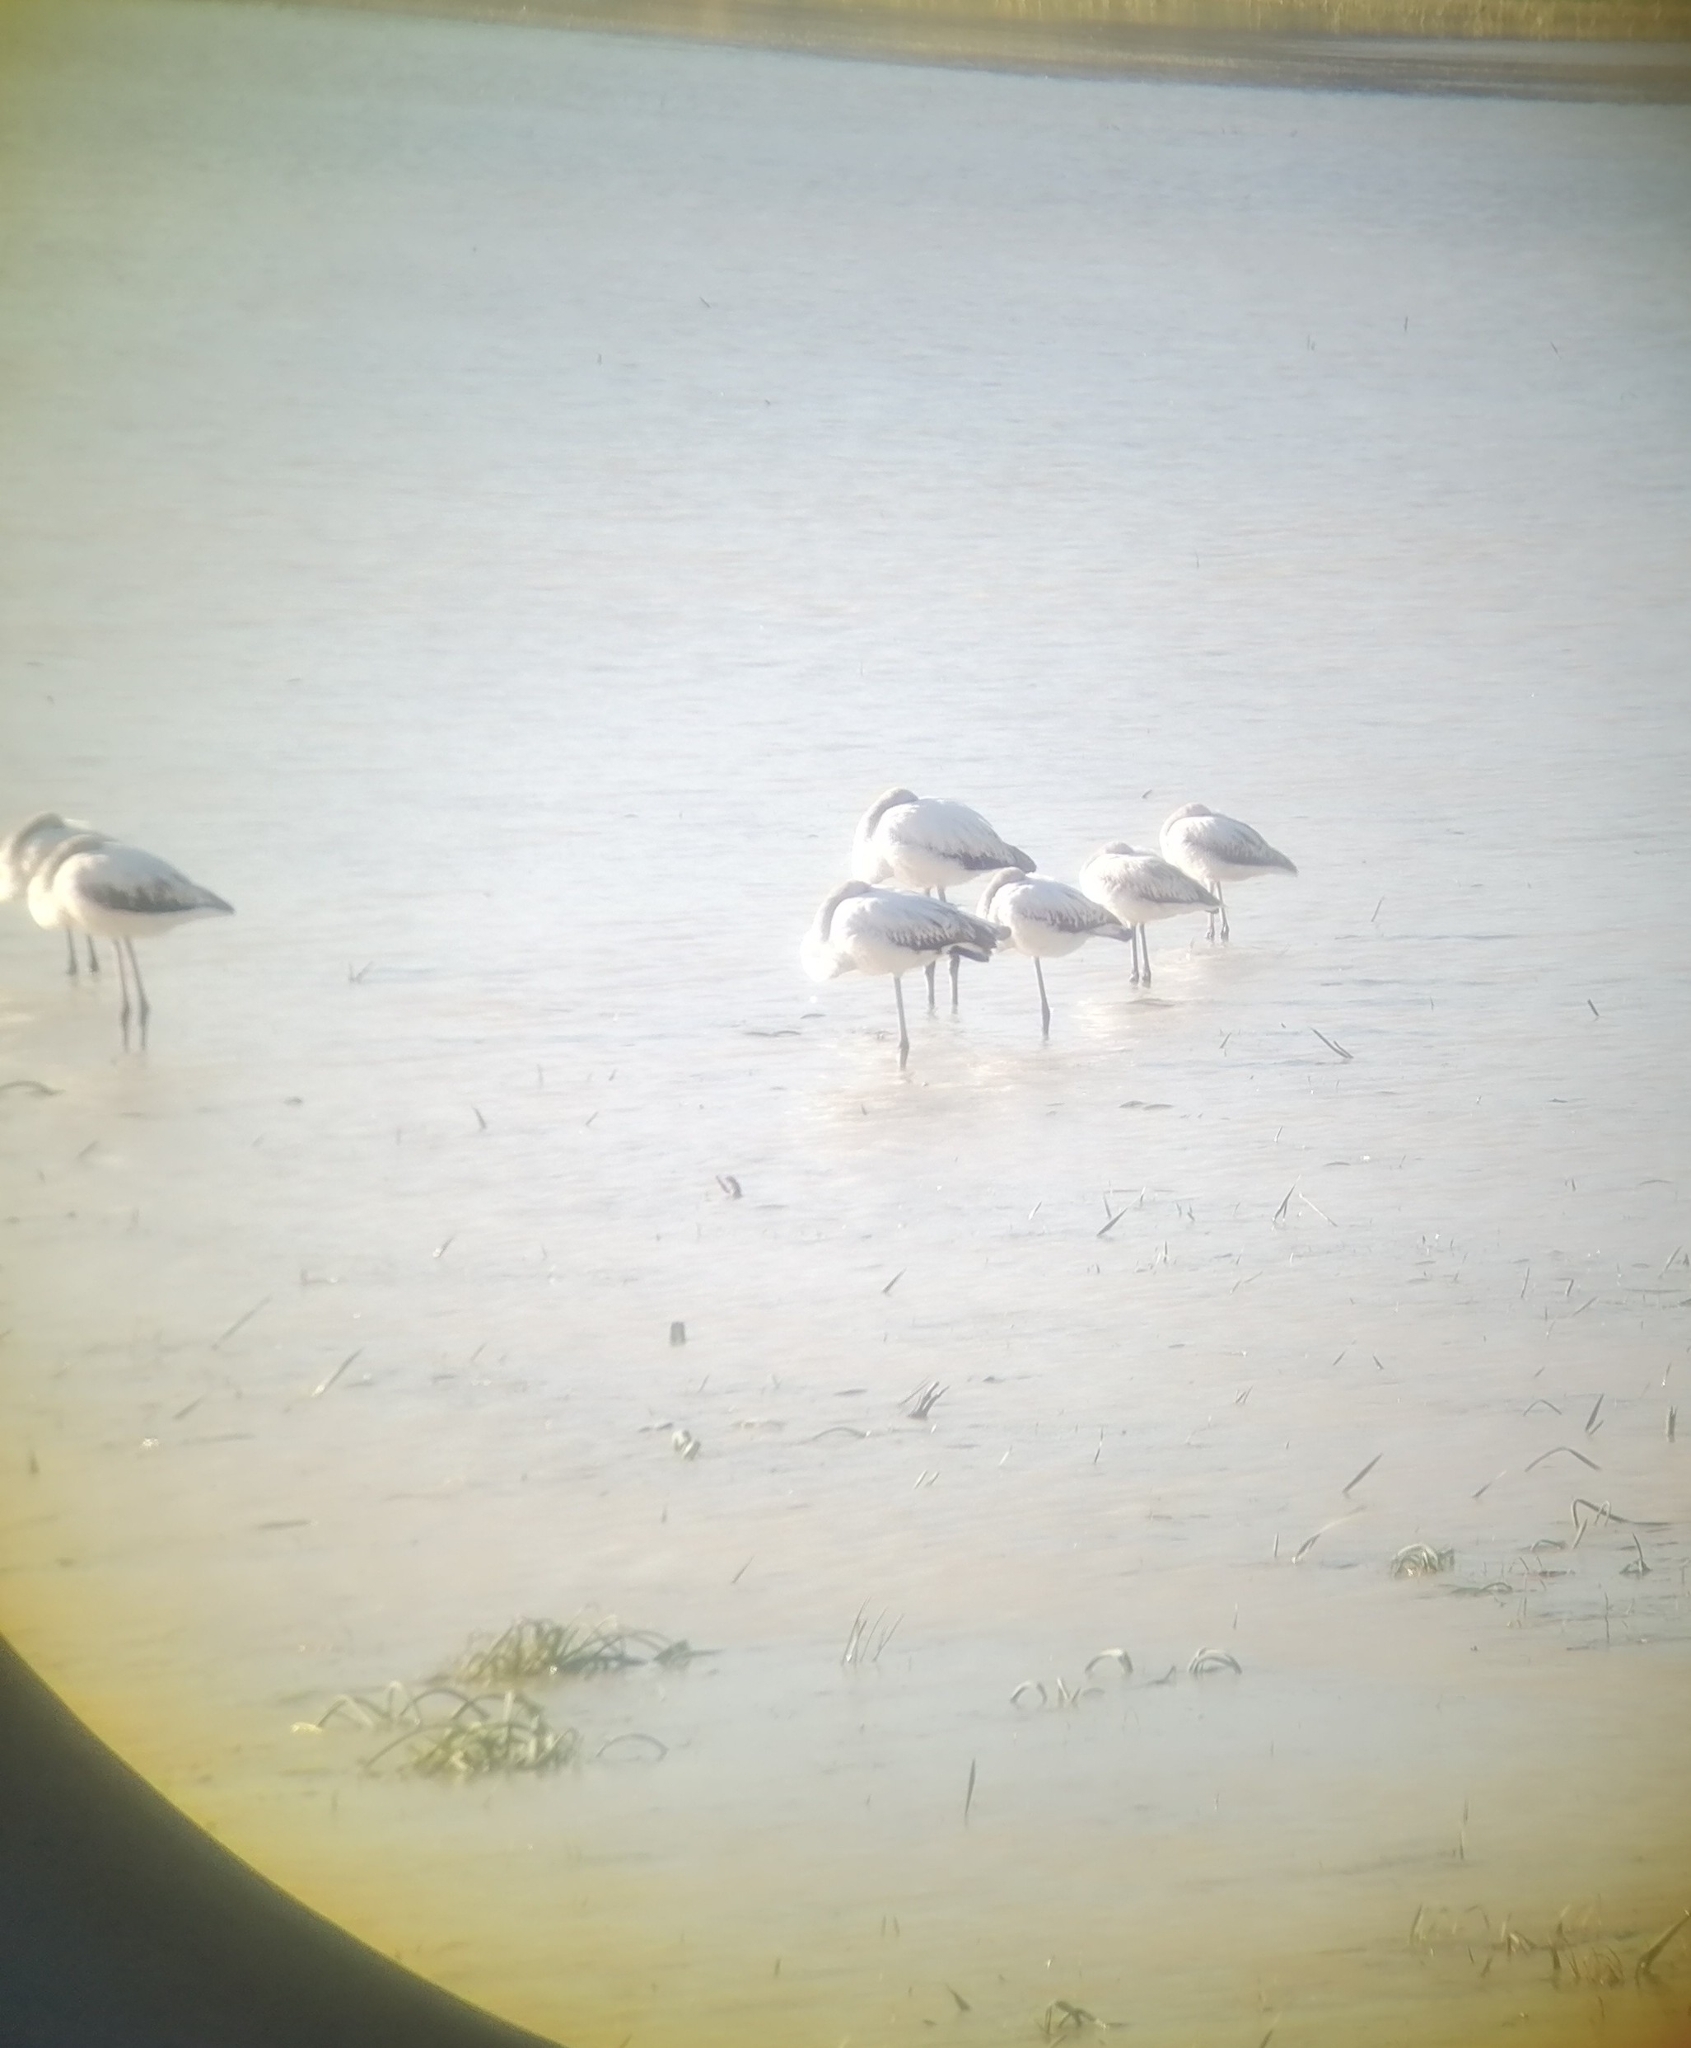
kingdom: Animalia
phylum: Chordata
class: Aves
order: Phoenicopteriformes
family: Phoenicopteridae
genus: Phoenicopterus
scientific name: Phoenicopterus roseus
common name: Greater flamingo
